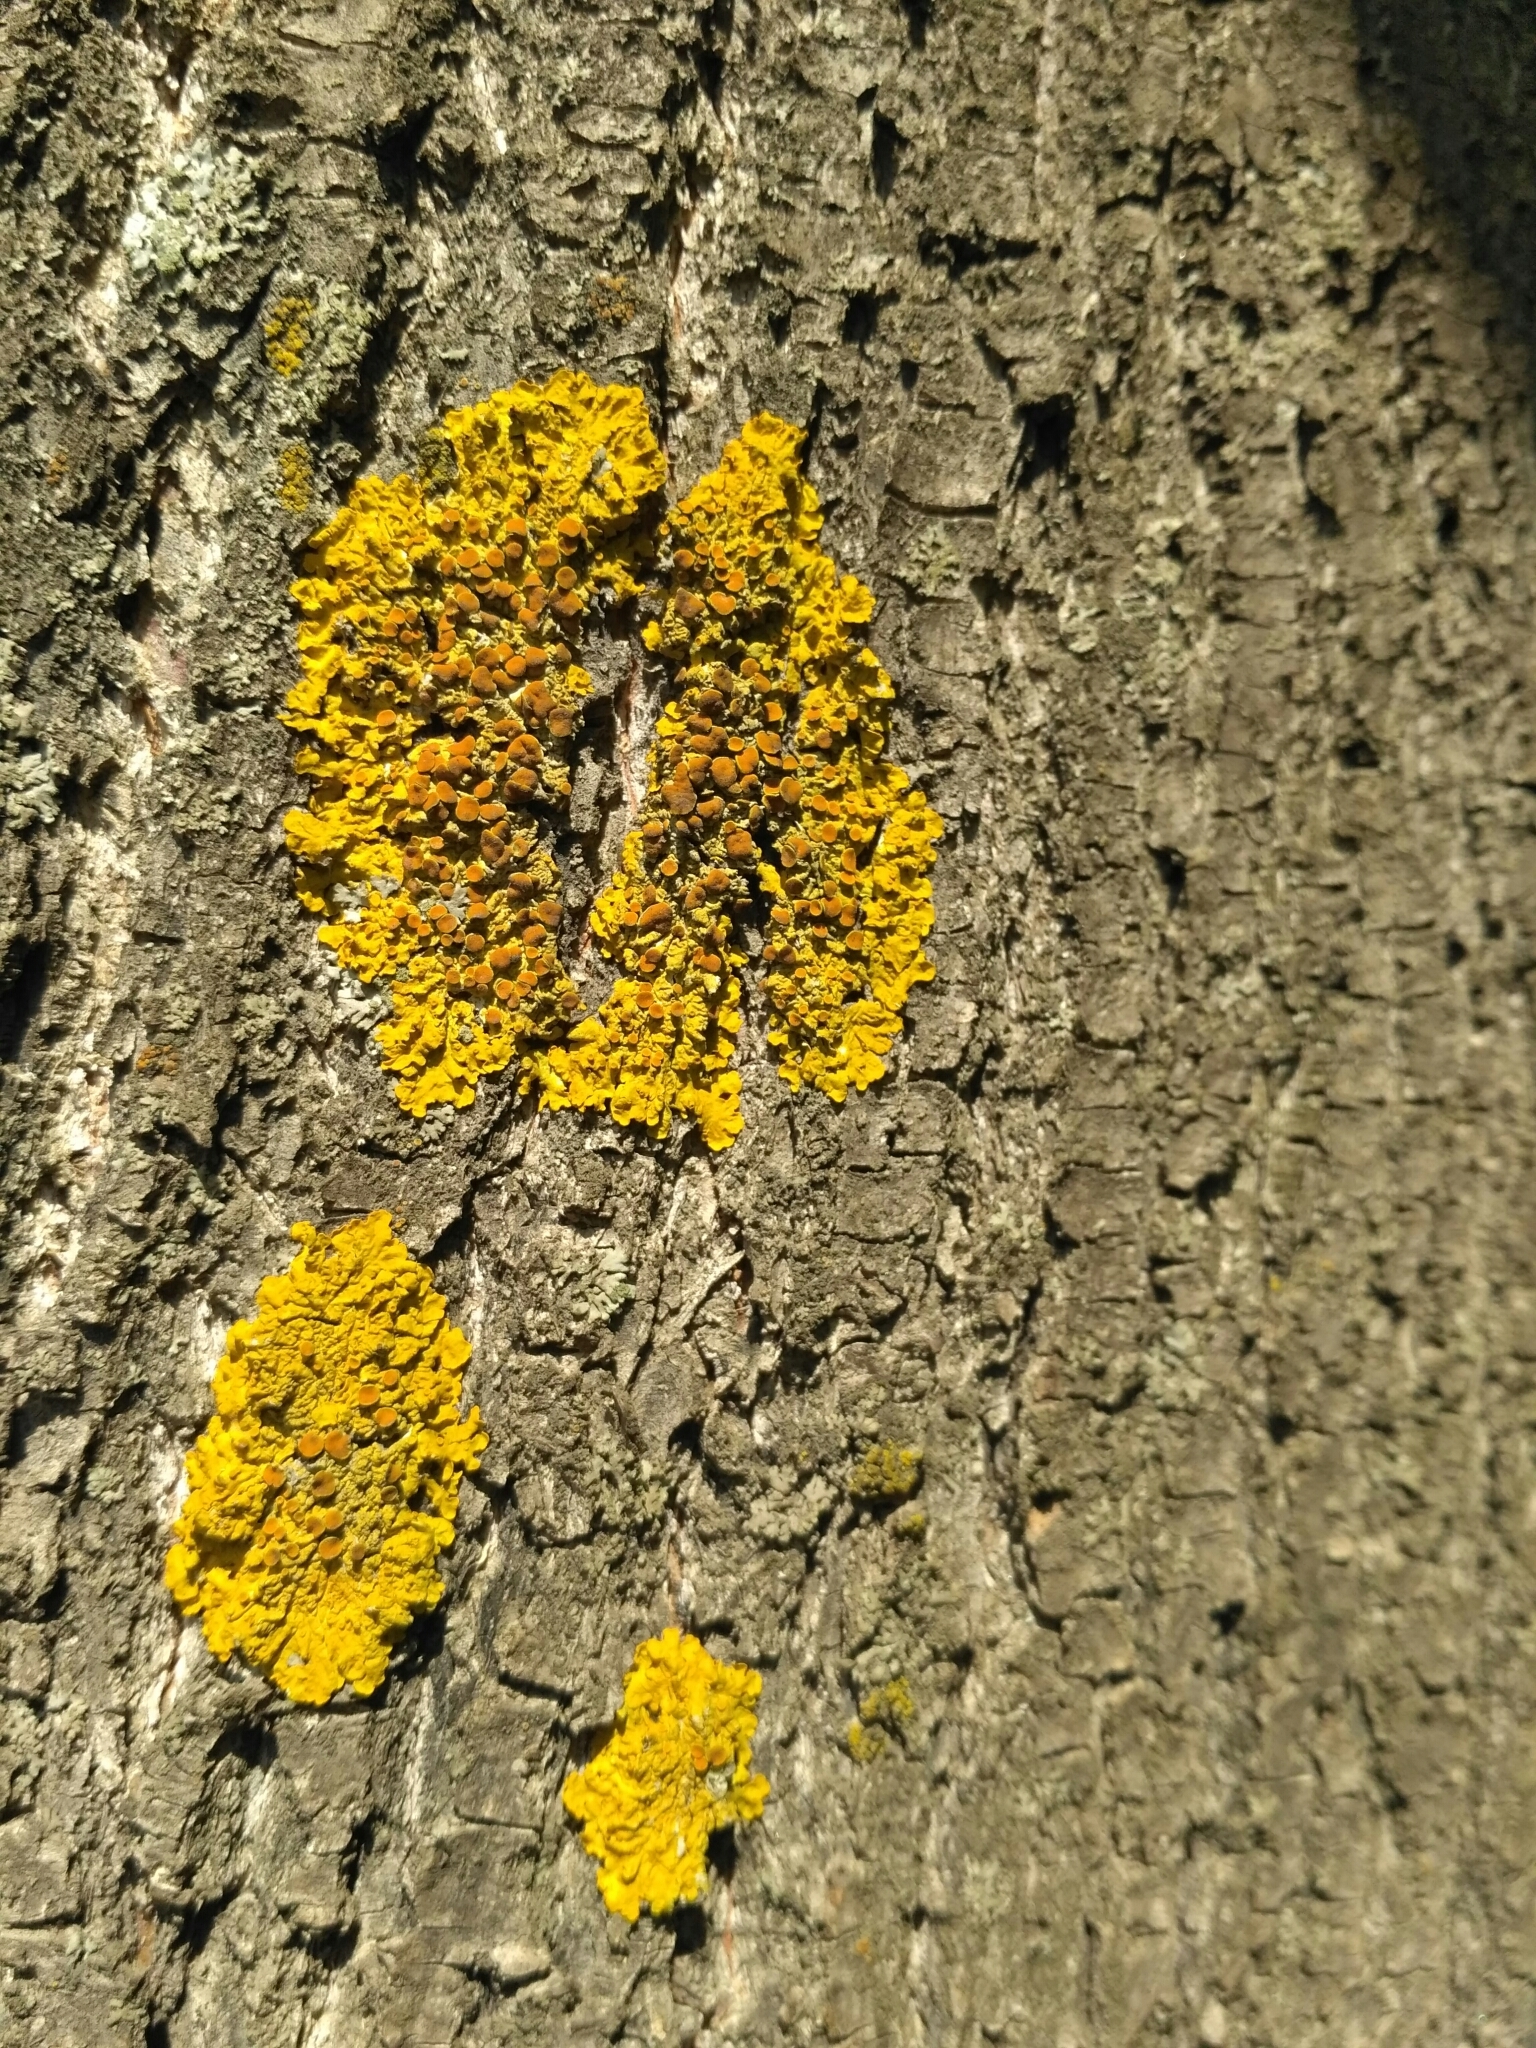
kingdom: Fungi
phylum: Ascomycota
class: Lecanoromycetes
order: Teloschistales
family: Teloschistaceae
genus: Xanthoria
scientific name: Xanthoria parietina
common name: Common orange lichen
